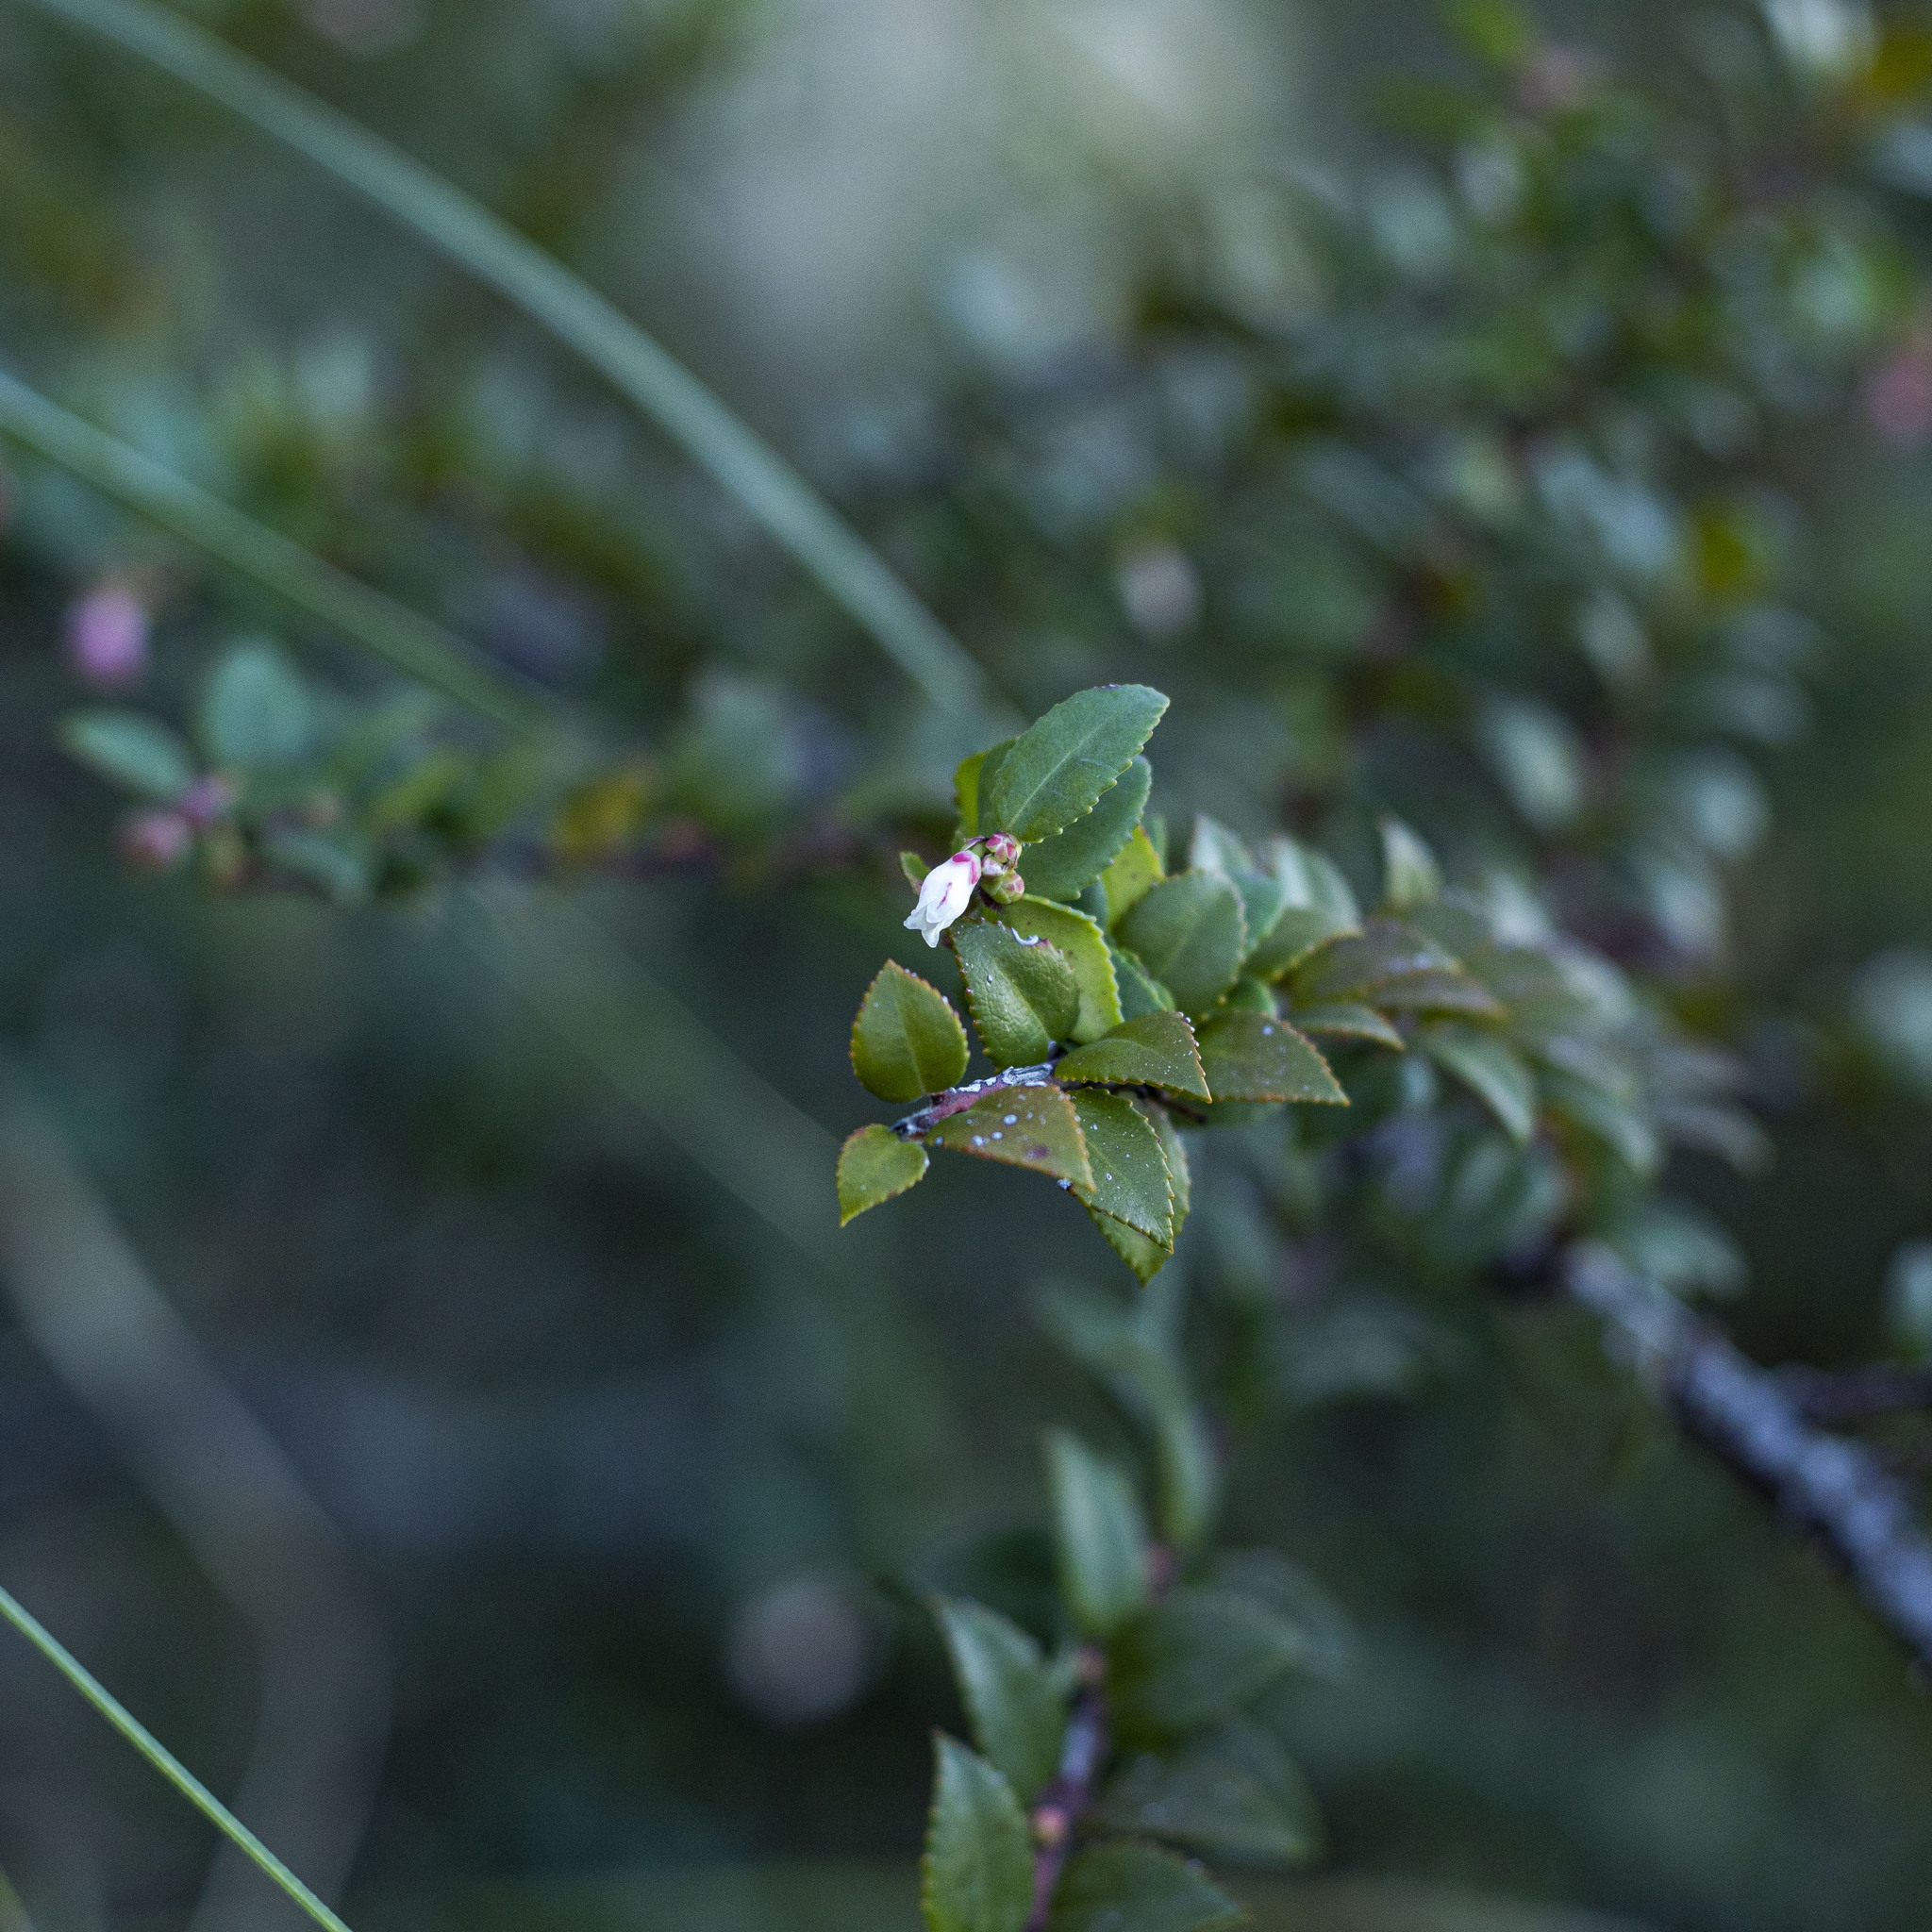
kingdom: Plantae
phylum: Tracheophyta
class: Magnoliopsida
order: Ericales
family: Ericaceae
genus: Vaccinium
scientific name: Vaccinium ovatum
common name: California-huckleberry
